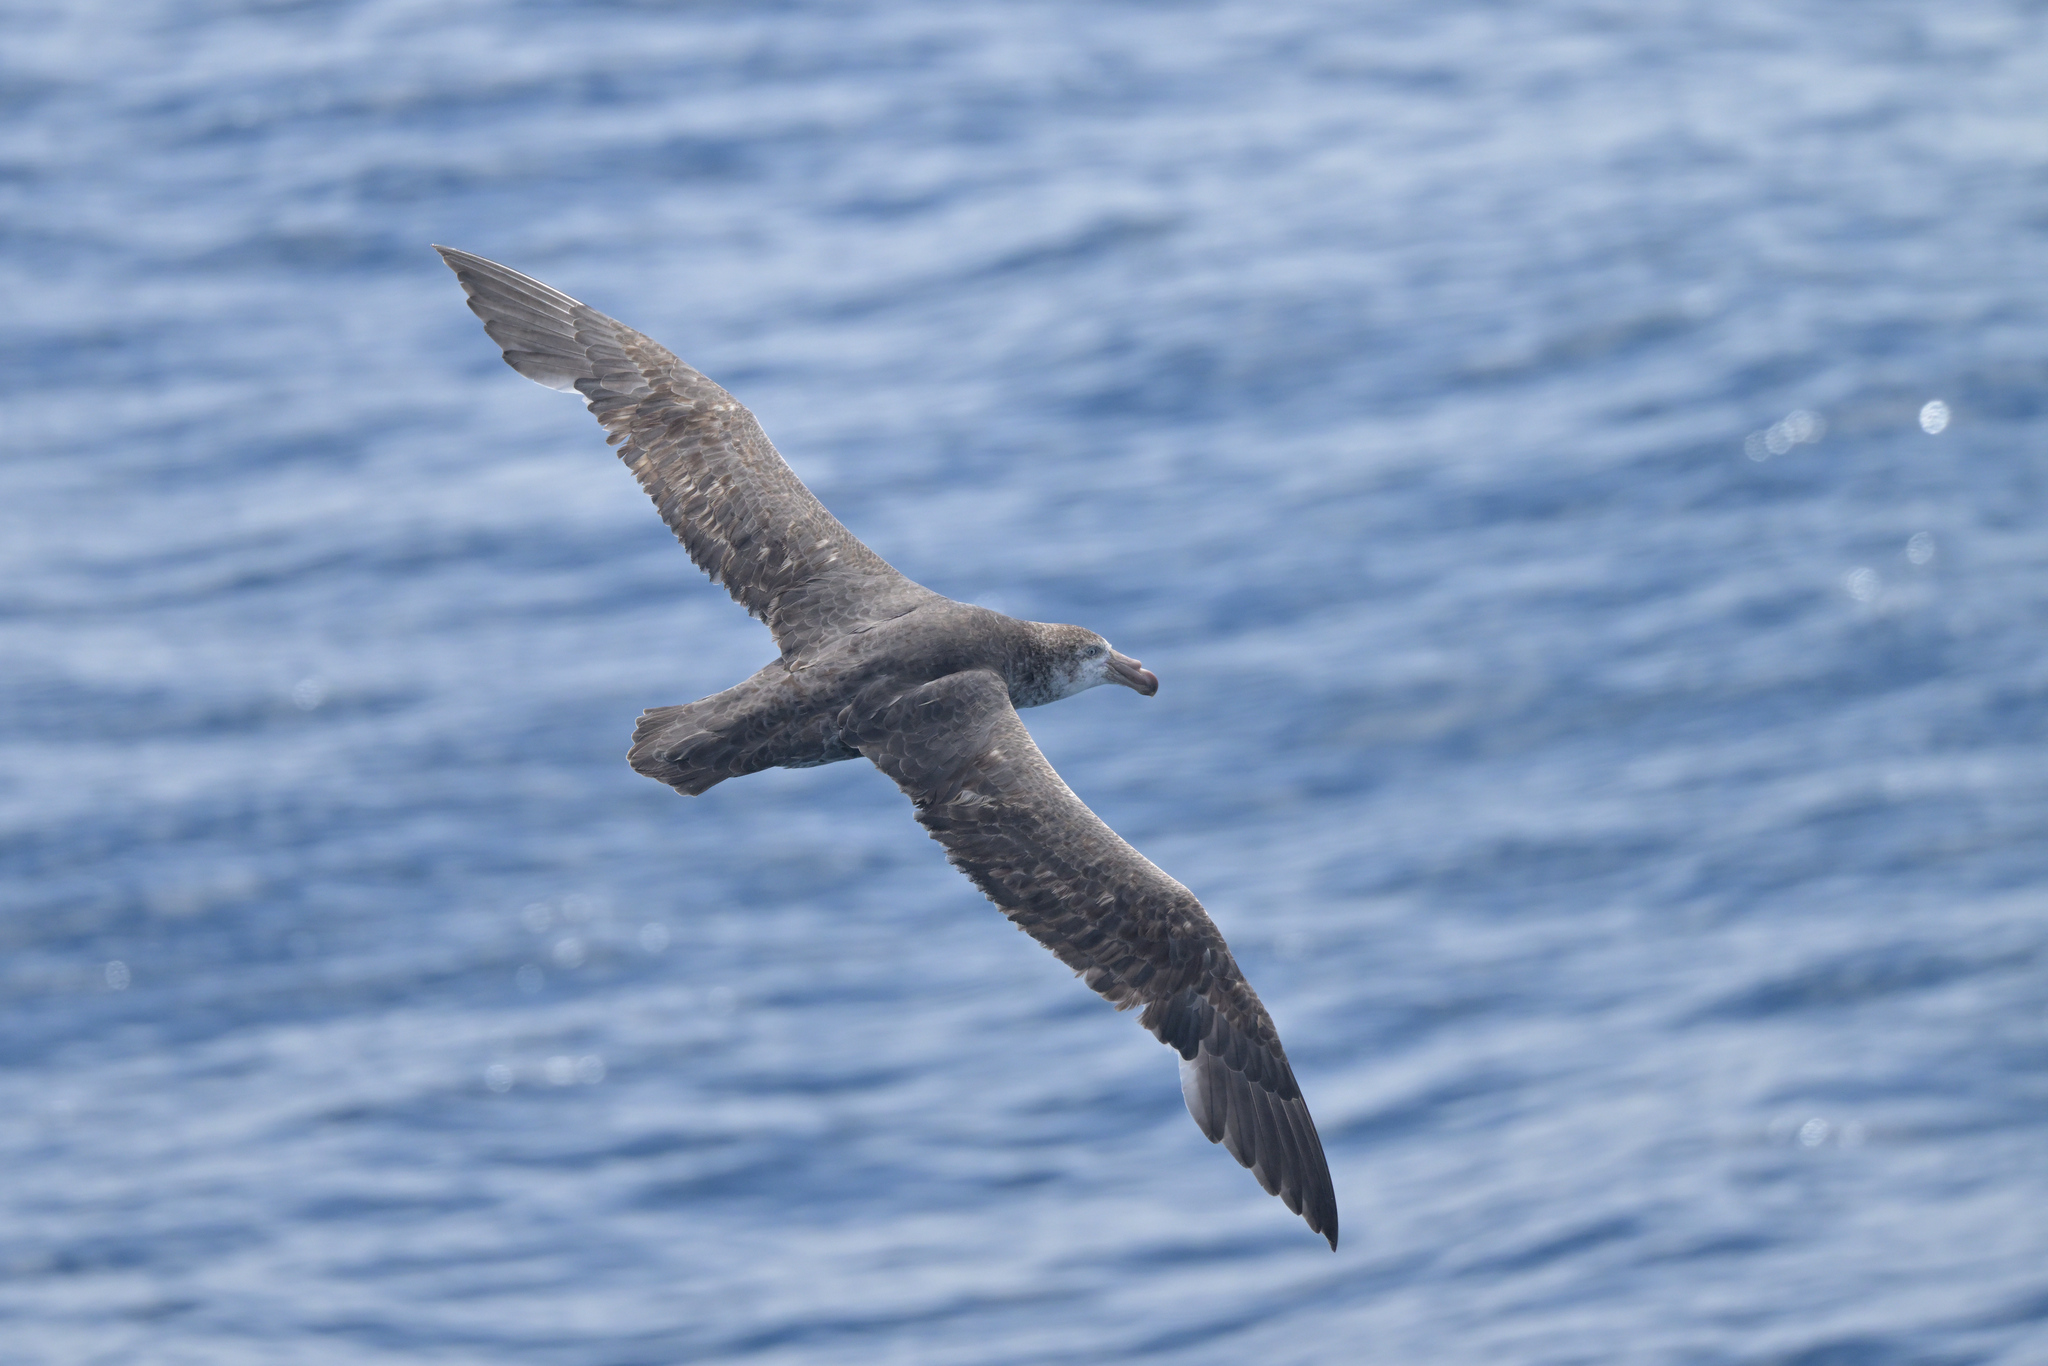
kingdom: Animalia
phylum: Chordata
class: Aves
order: Procellariiformes
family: Procellariidae
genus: Macronectes
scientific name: Macronectes halli
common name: Northern giant petrel
